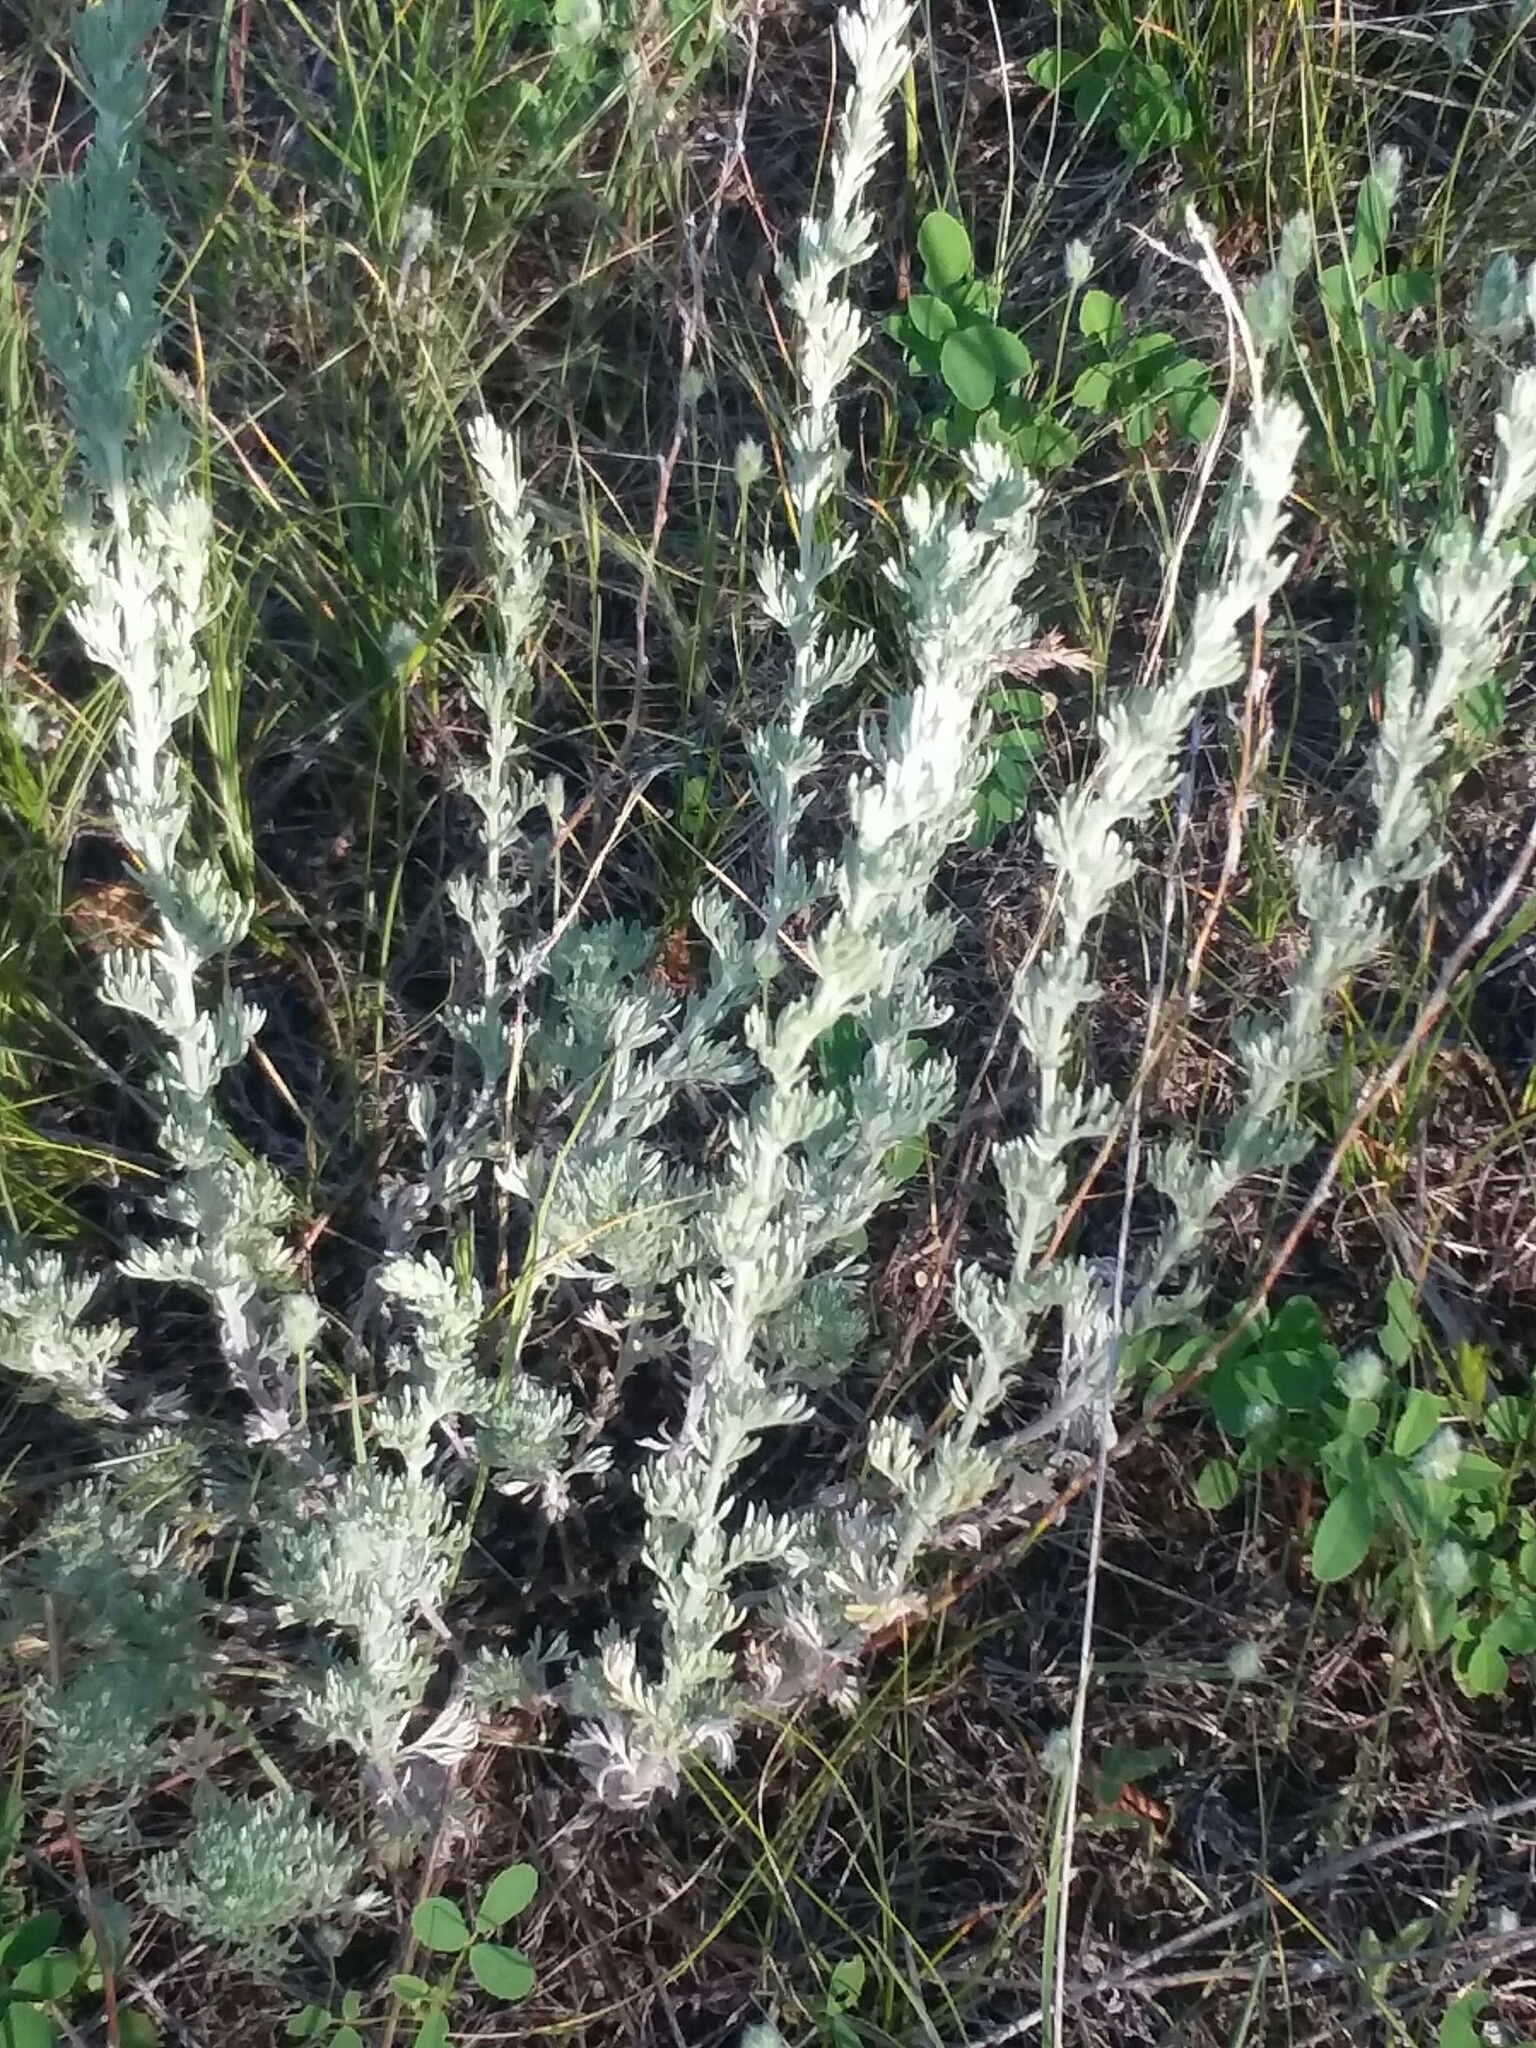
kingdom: Plantae
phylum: Tracheophyta
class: Magnoliopsida
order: Asterales
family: Asteraceae
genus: Artemisia
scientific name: Artemisia frigida
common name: Prairie sagewort
